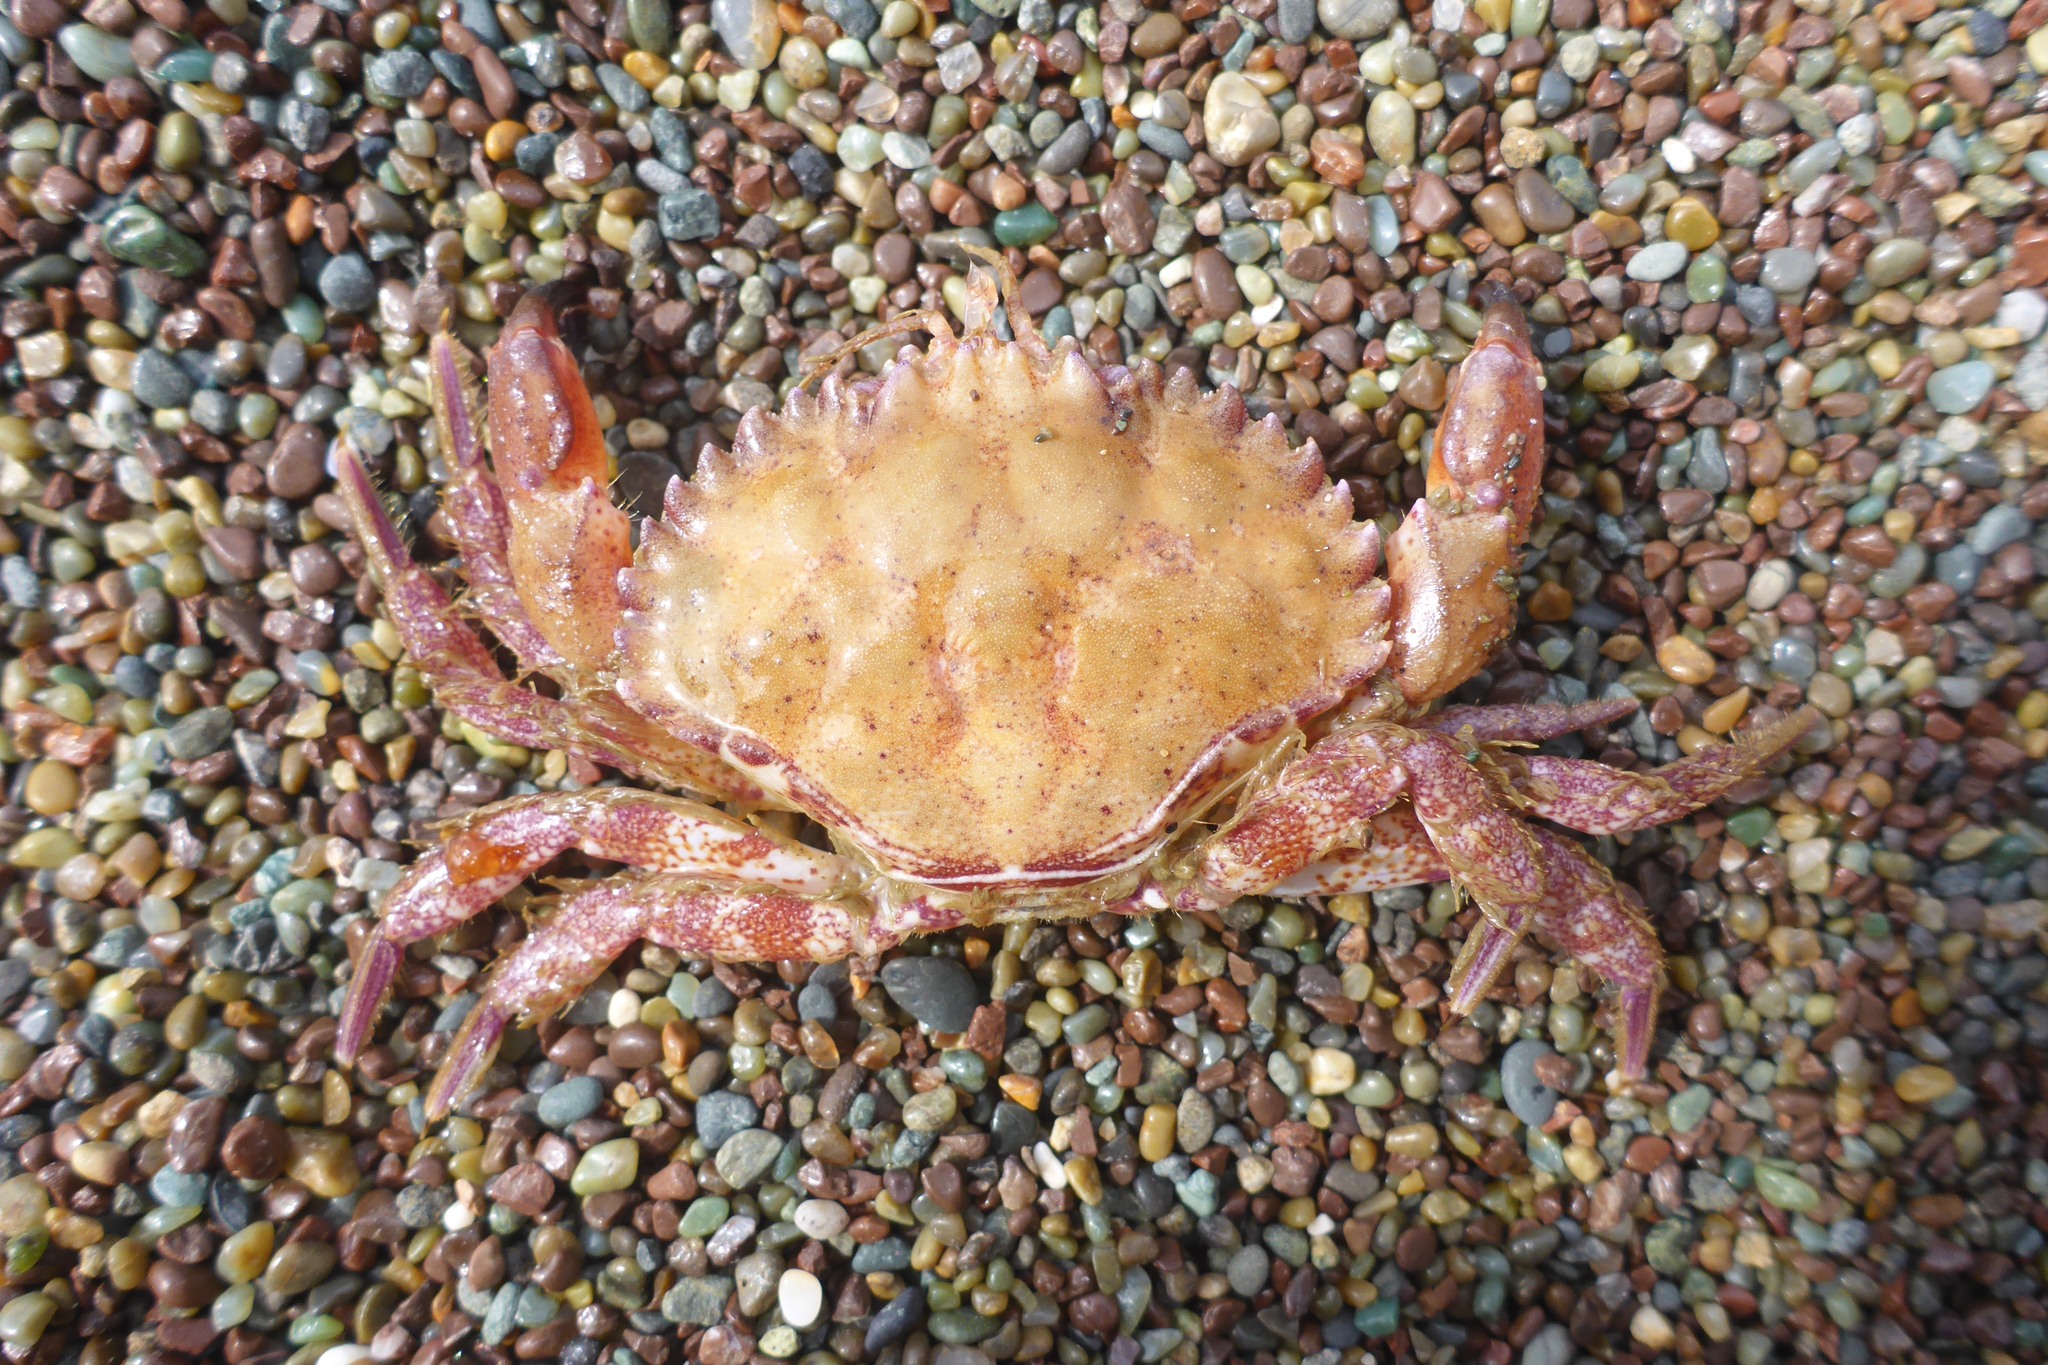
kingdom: Animalia
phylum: Arthropoda
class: Malacostraca
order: Decapoda
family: Cancridae
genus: Romaleon
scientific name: Romaleon antennarium
